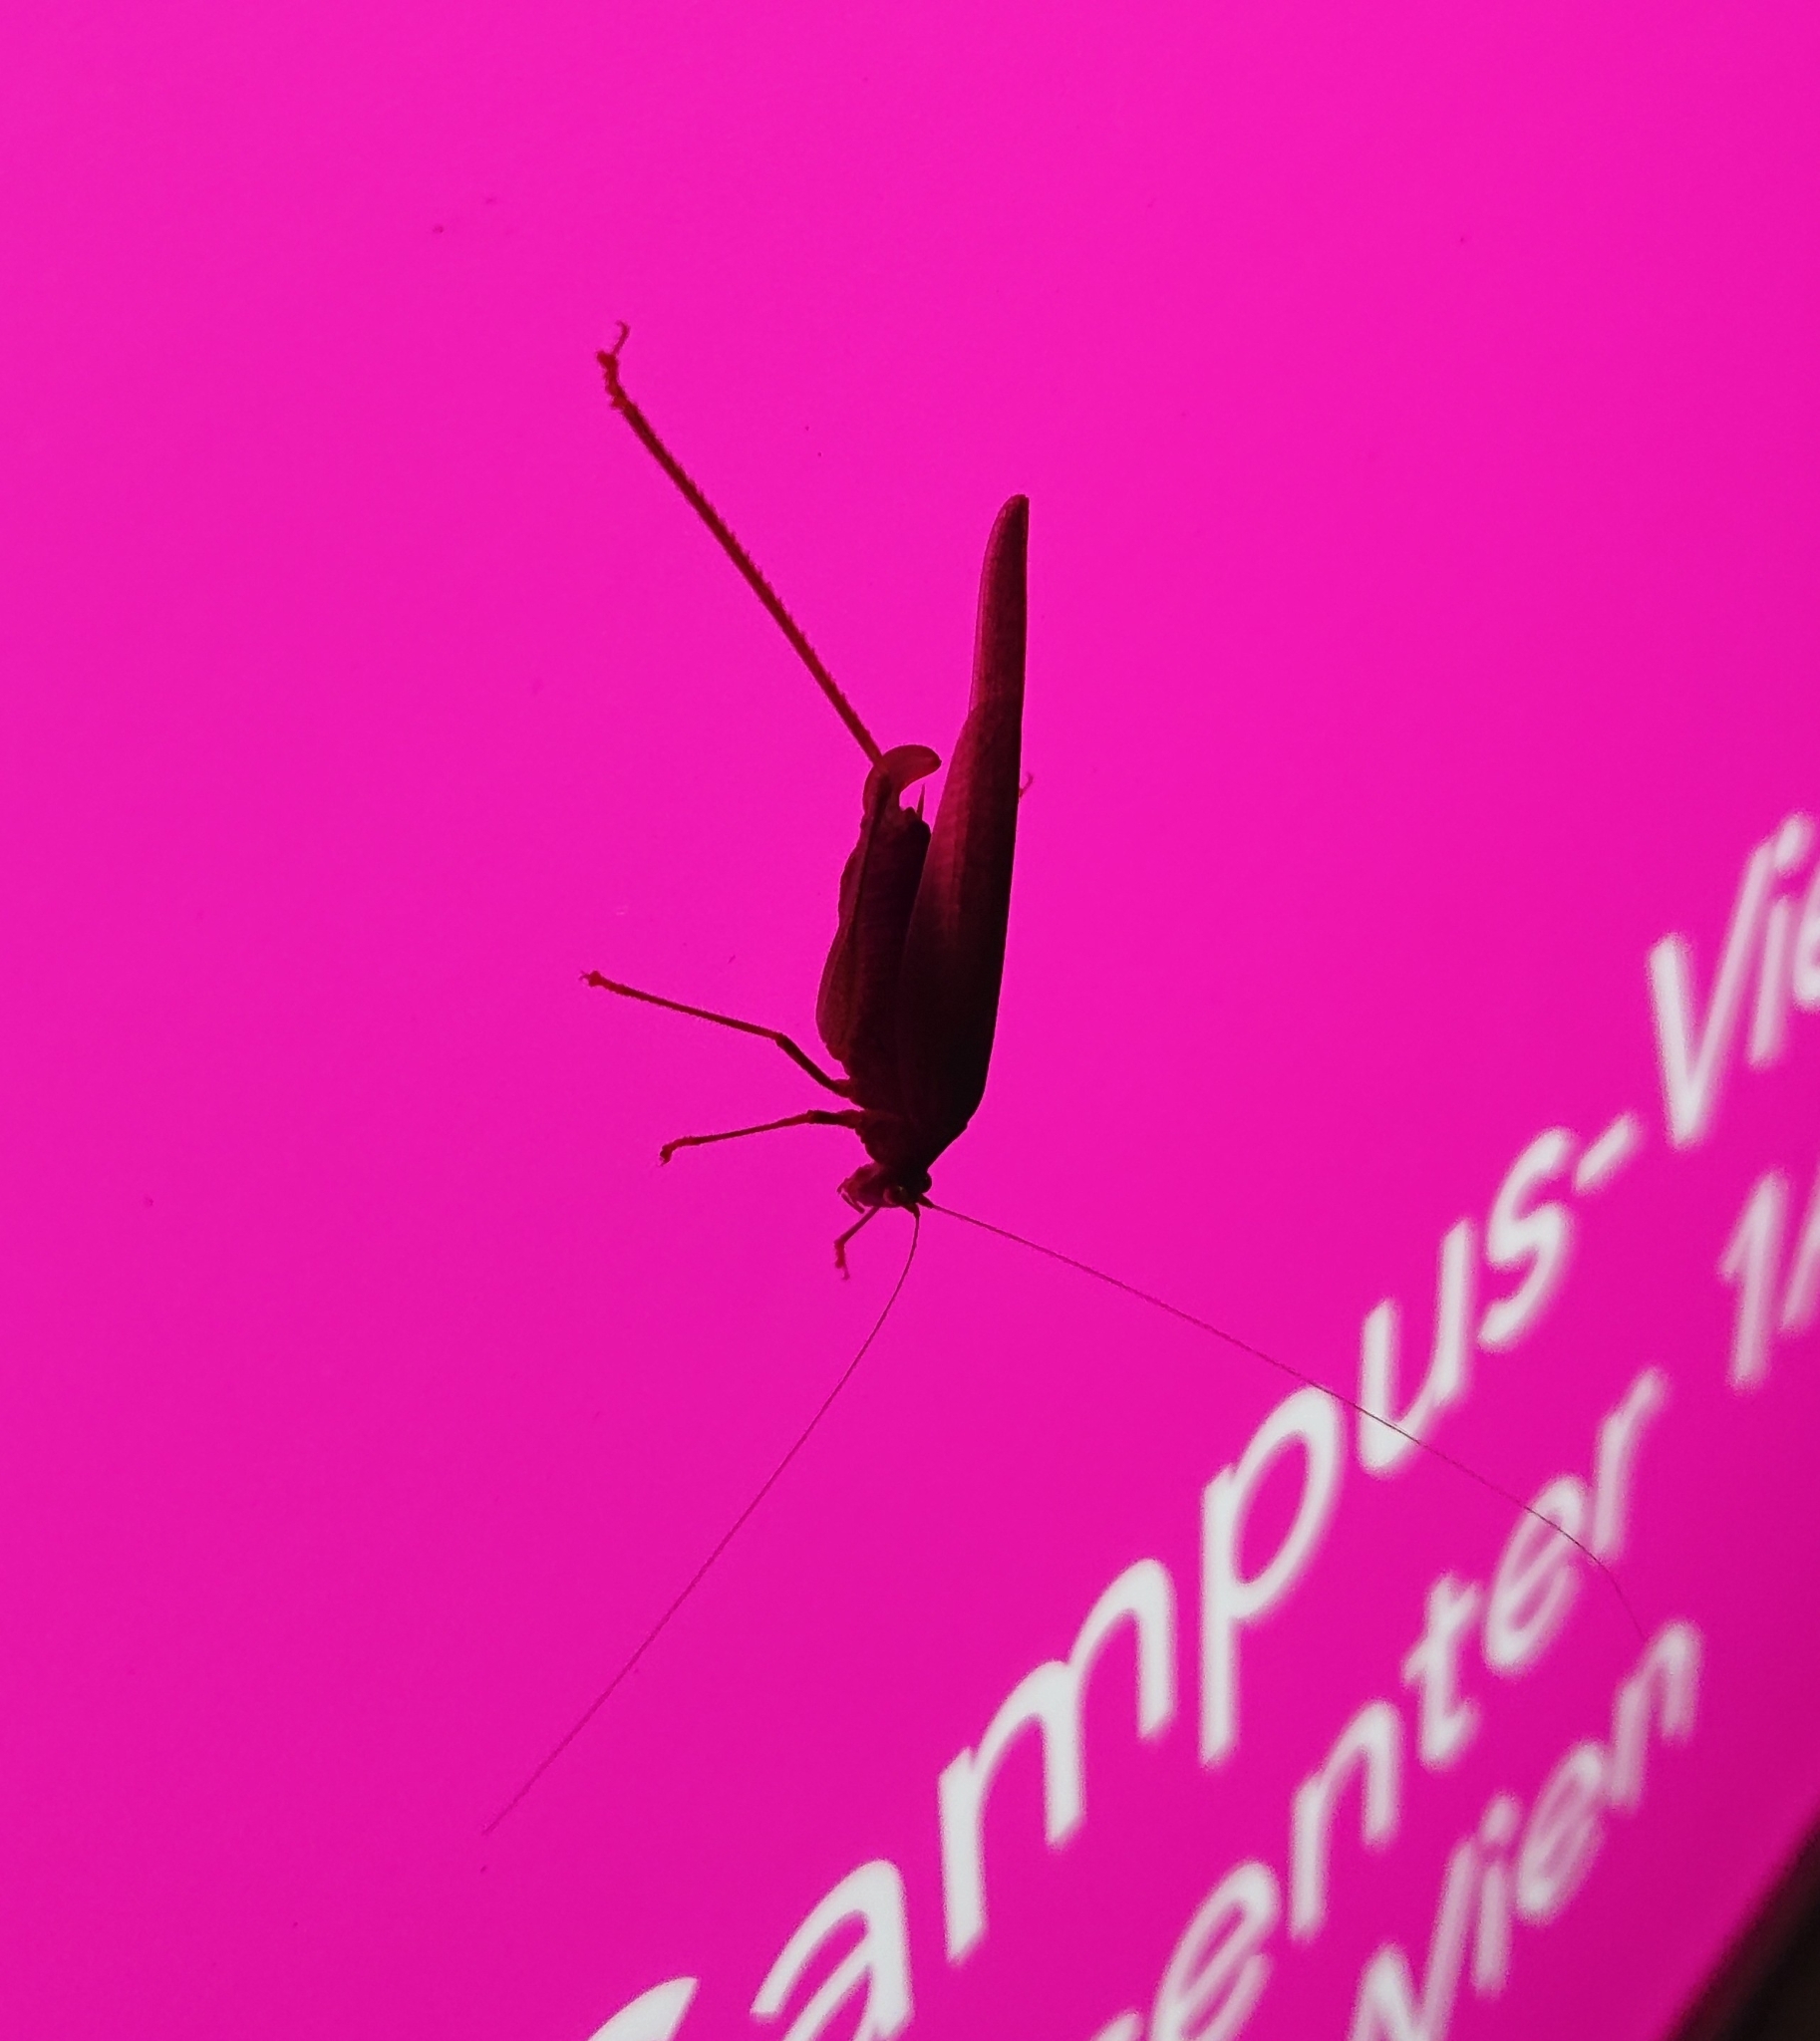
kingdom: Animalia
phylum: Arthropoda
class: Insecta
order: Orthoptera
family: Tettigoniidae
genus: Phaneroptera
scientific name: Phaneroptera nana
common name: Southern sickle bush-cricket
